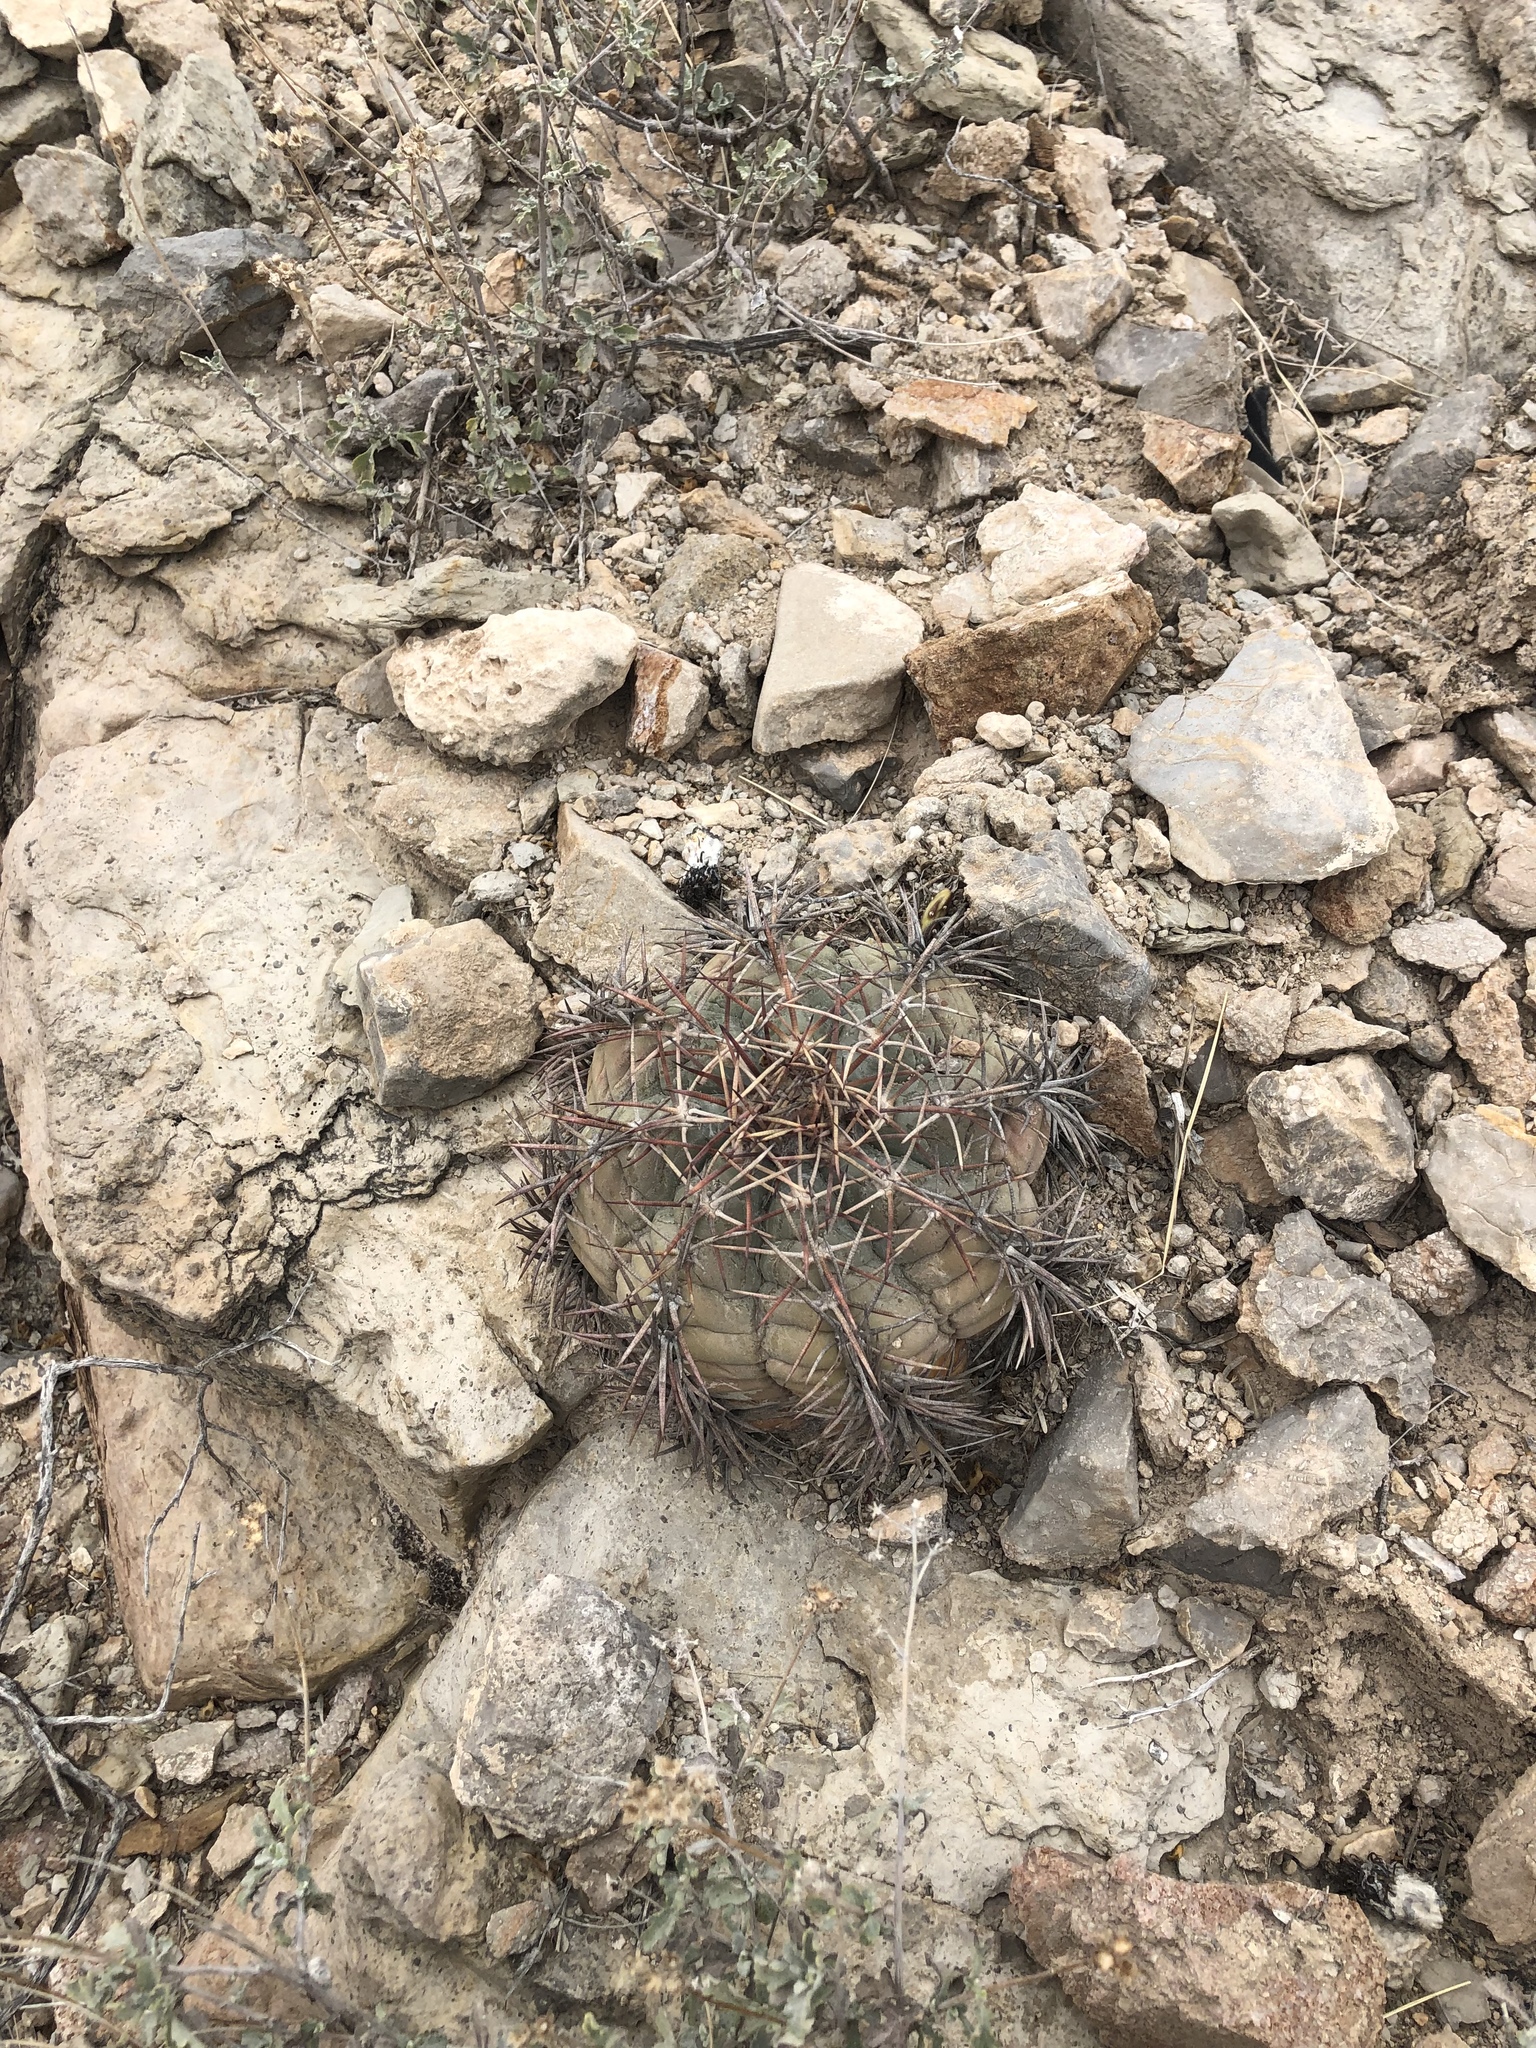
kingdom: Plantae
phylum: Tracheophyta
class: Magnoliopsida
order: Caryophyllales
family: Cactaceae
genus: Echinocactus
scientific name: Echinocactus horizonthalonius
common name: Devilshead
